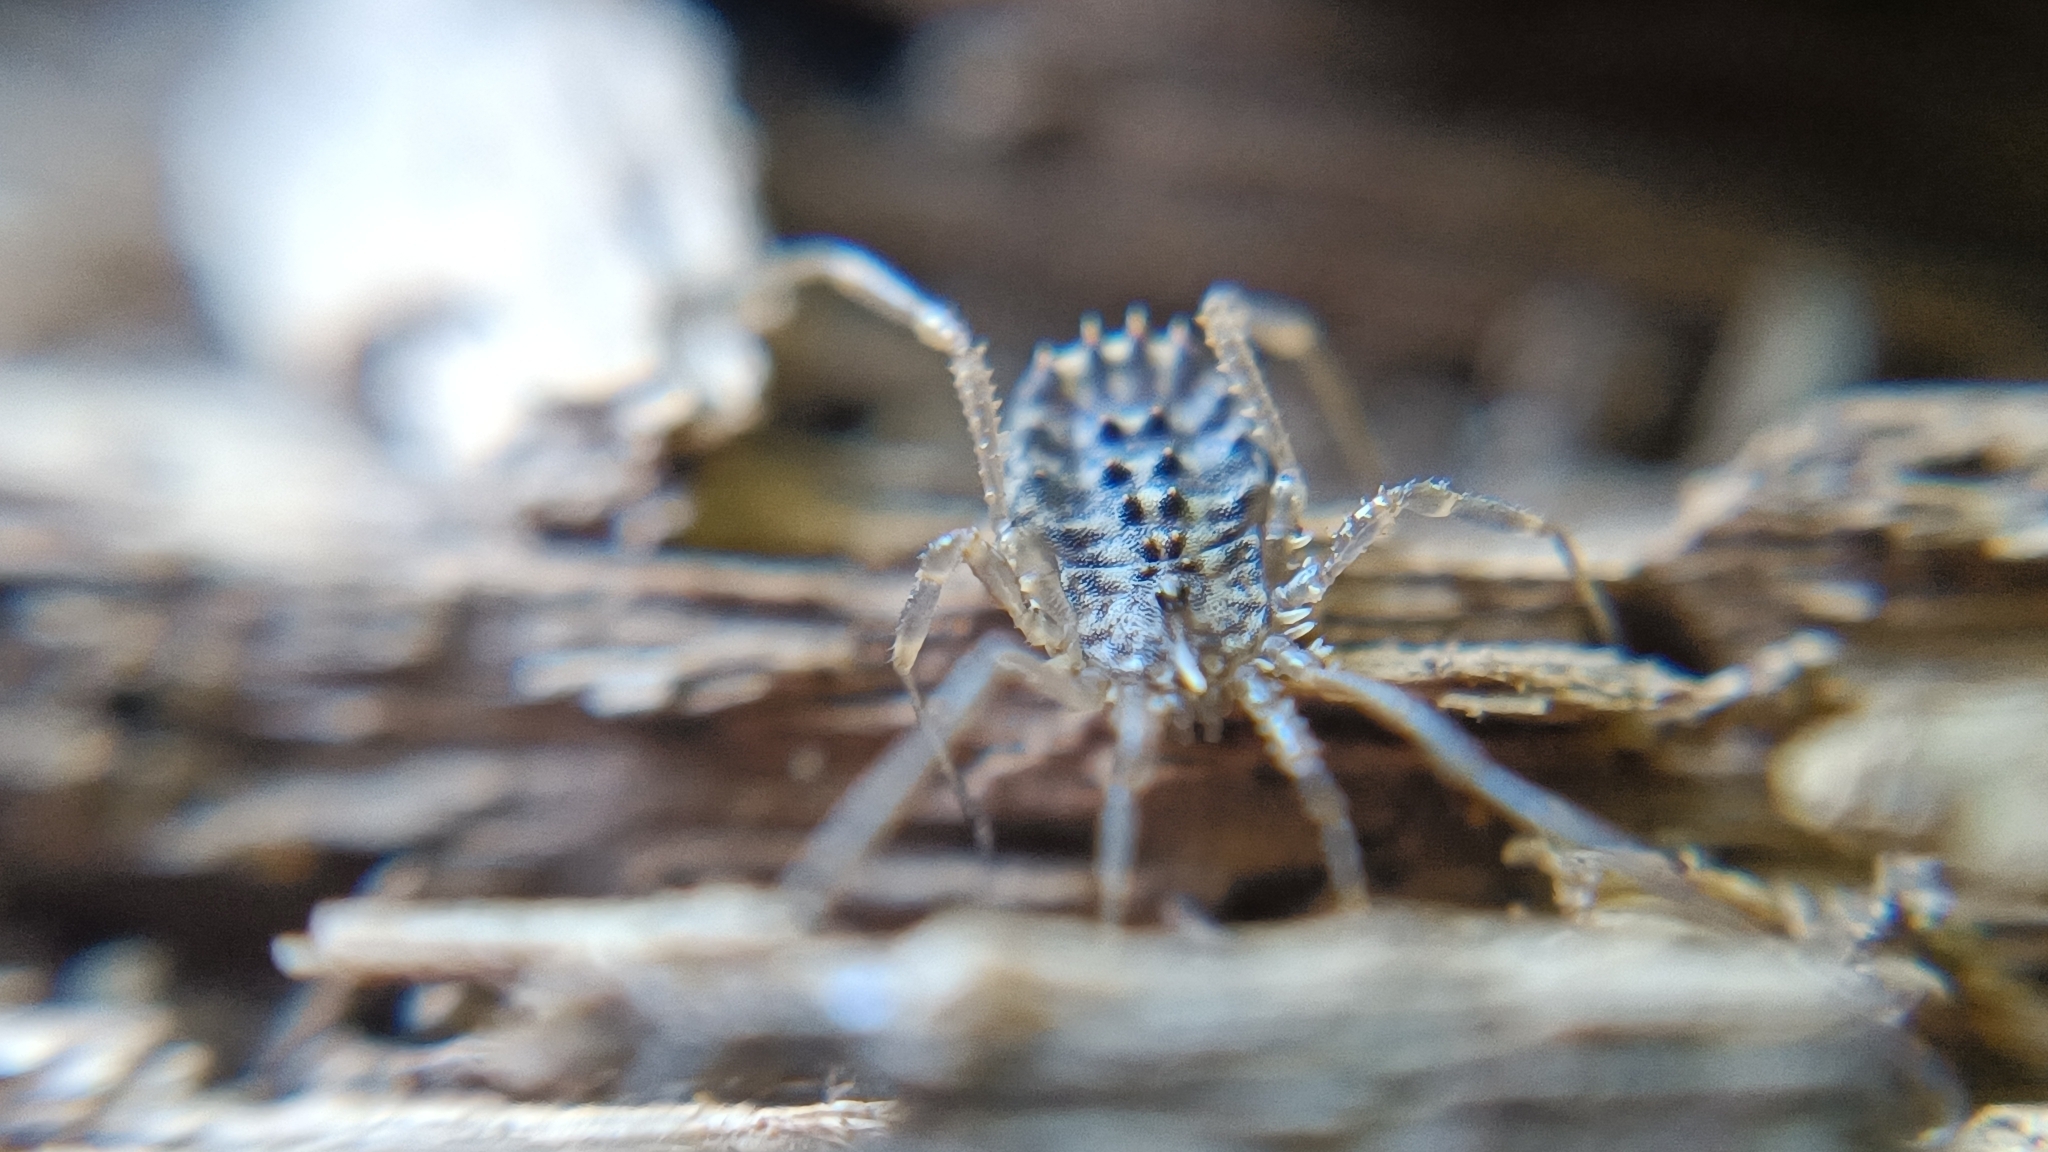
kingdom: Animalia
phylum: Arthropoda
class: Arachnida
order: Opiliones
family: Sclerosomatidae
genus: Homalenotus
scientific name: Homalenotus quadridentatus
